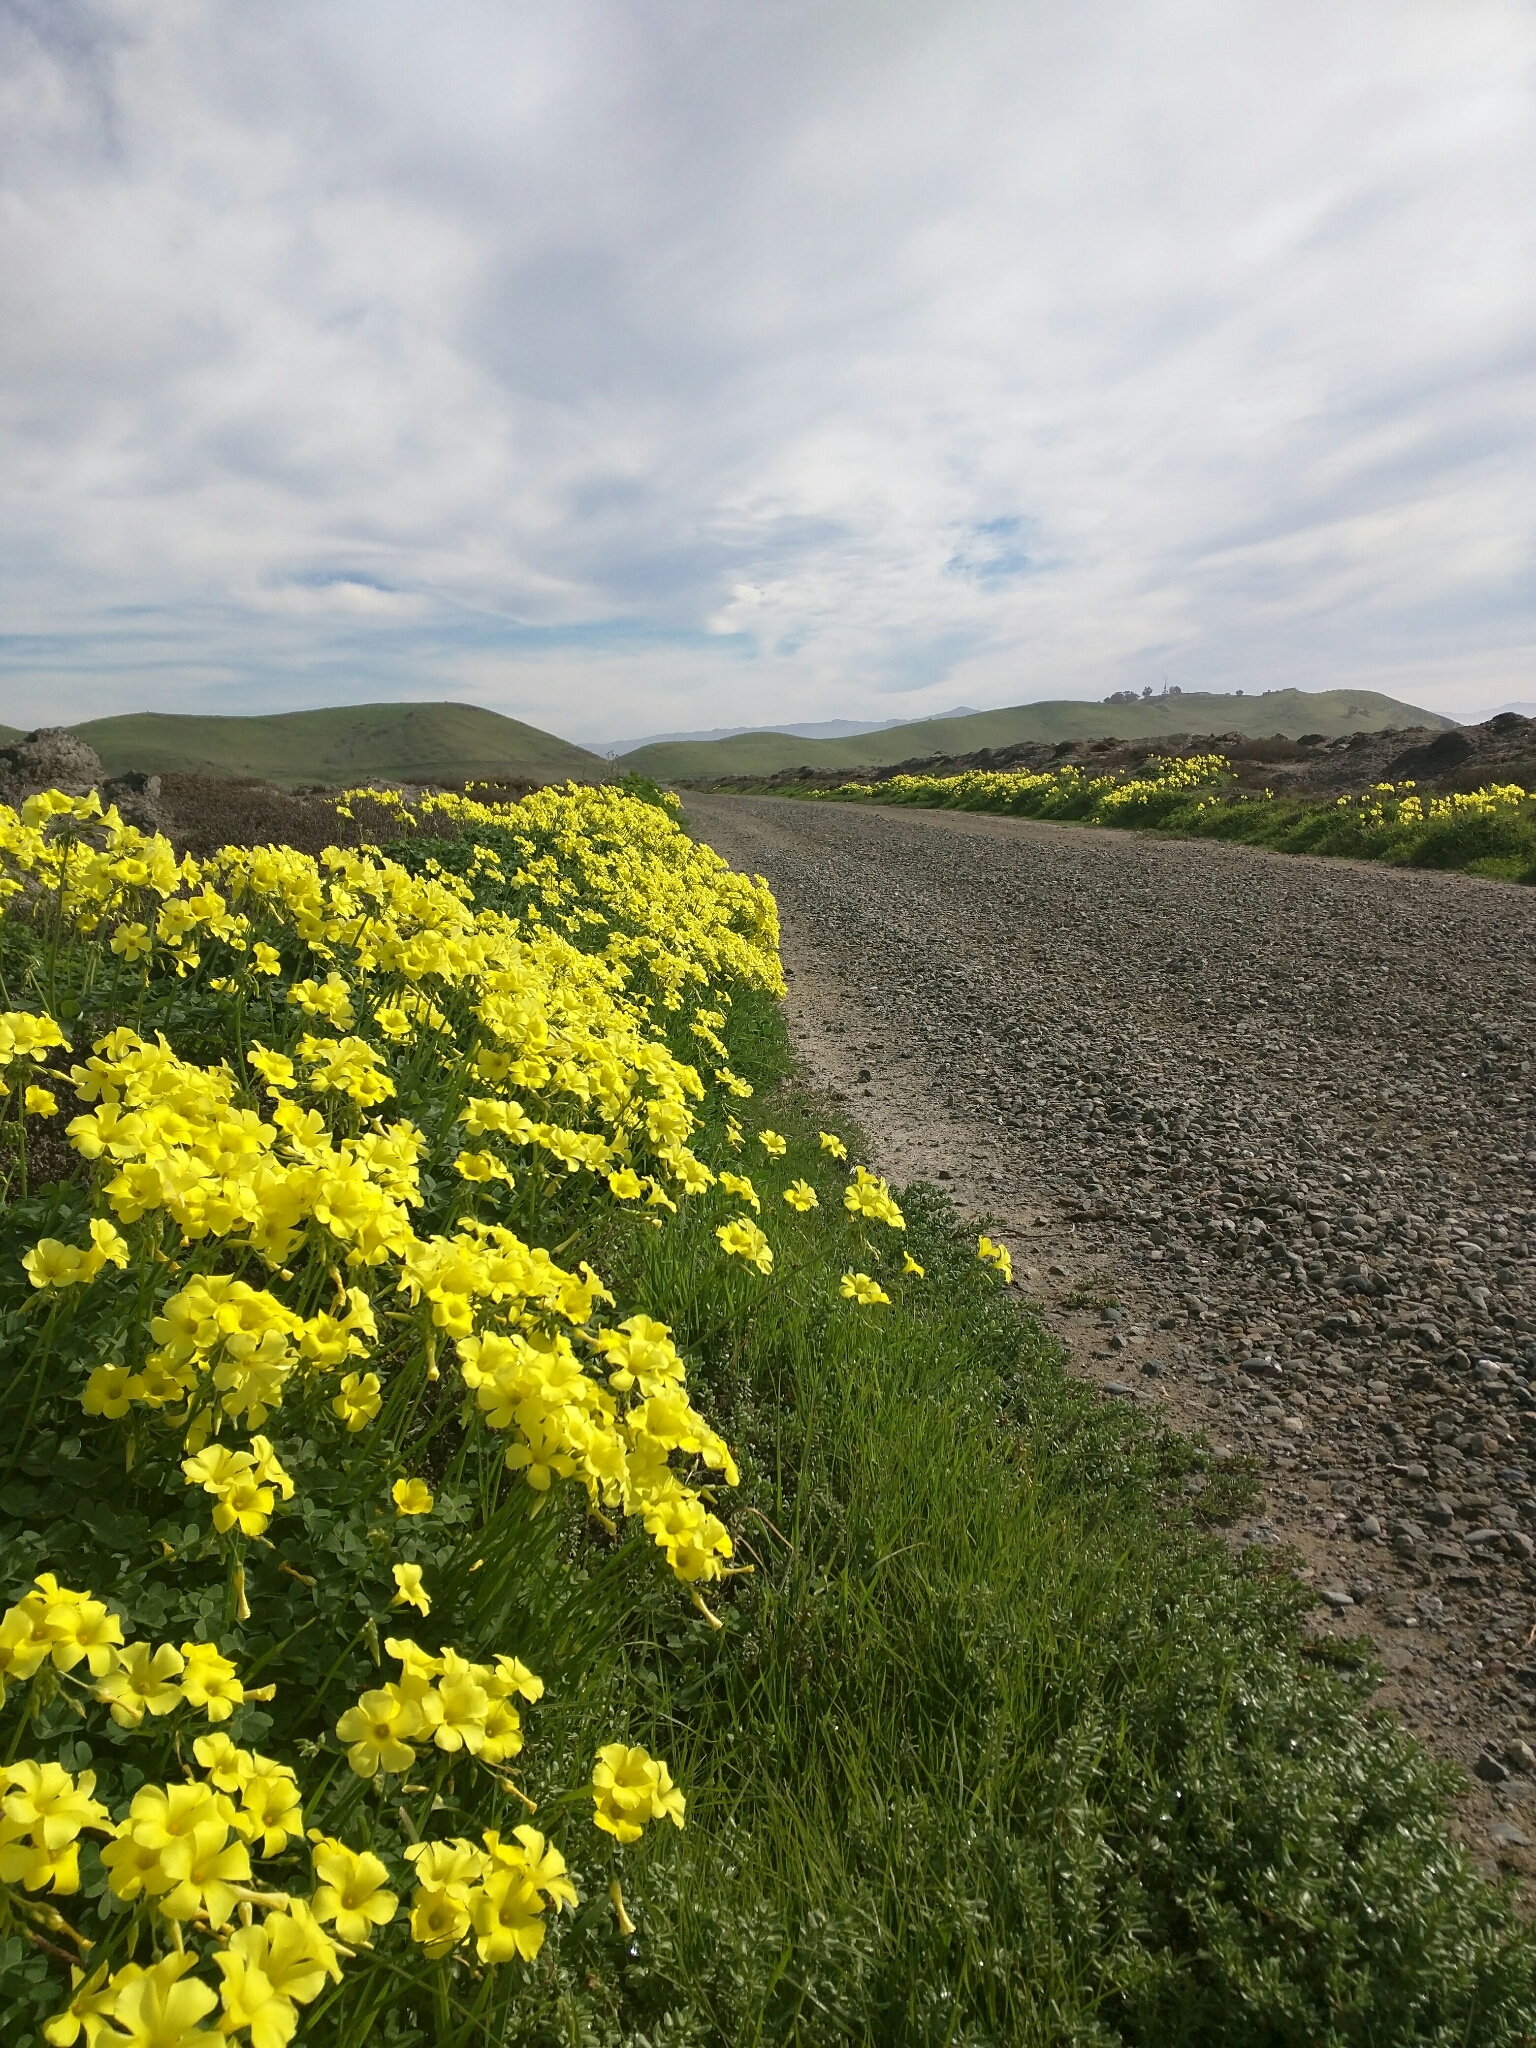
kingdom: Plantae
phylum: Tracheophyta
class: Magnoliopsida
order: Oxalidales
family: Oxalidaceae
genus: Oxalis
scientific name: Oxalis pes-caprae
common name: Bermuda-buttercup
